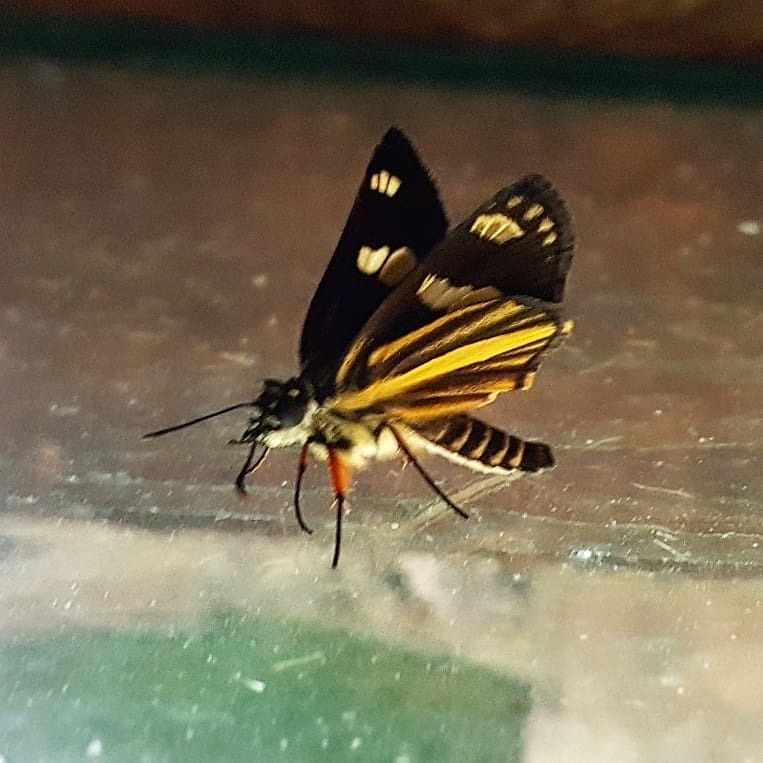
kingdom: Animalia
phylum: Arthropoda
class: Insecta
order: Lepidoptera
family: Hesperiidae
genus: Dalla
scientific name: Dalla ramirezi
